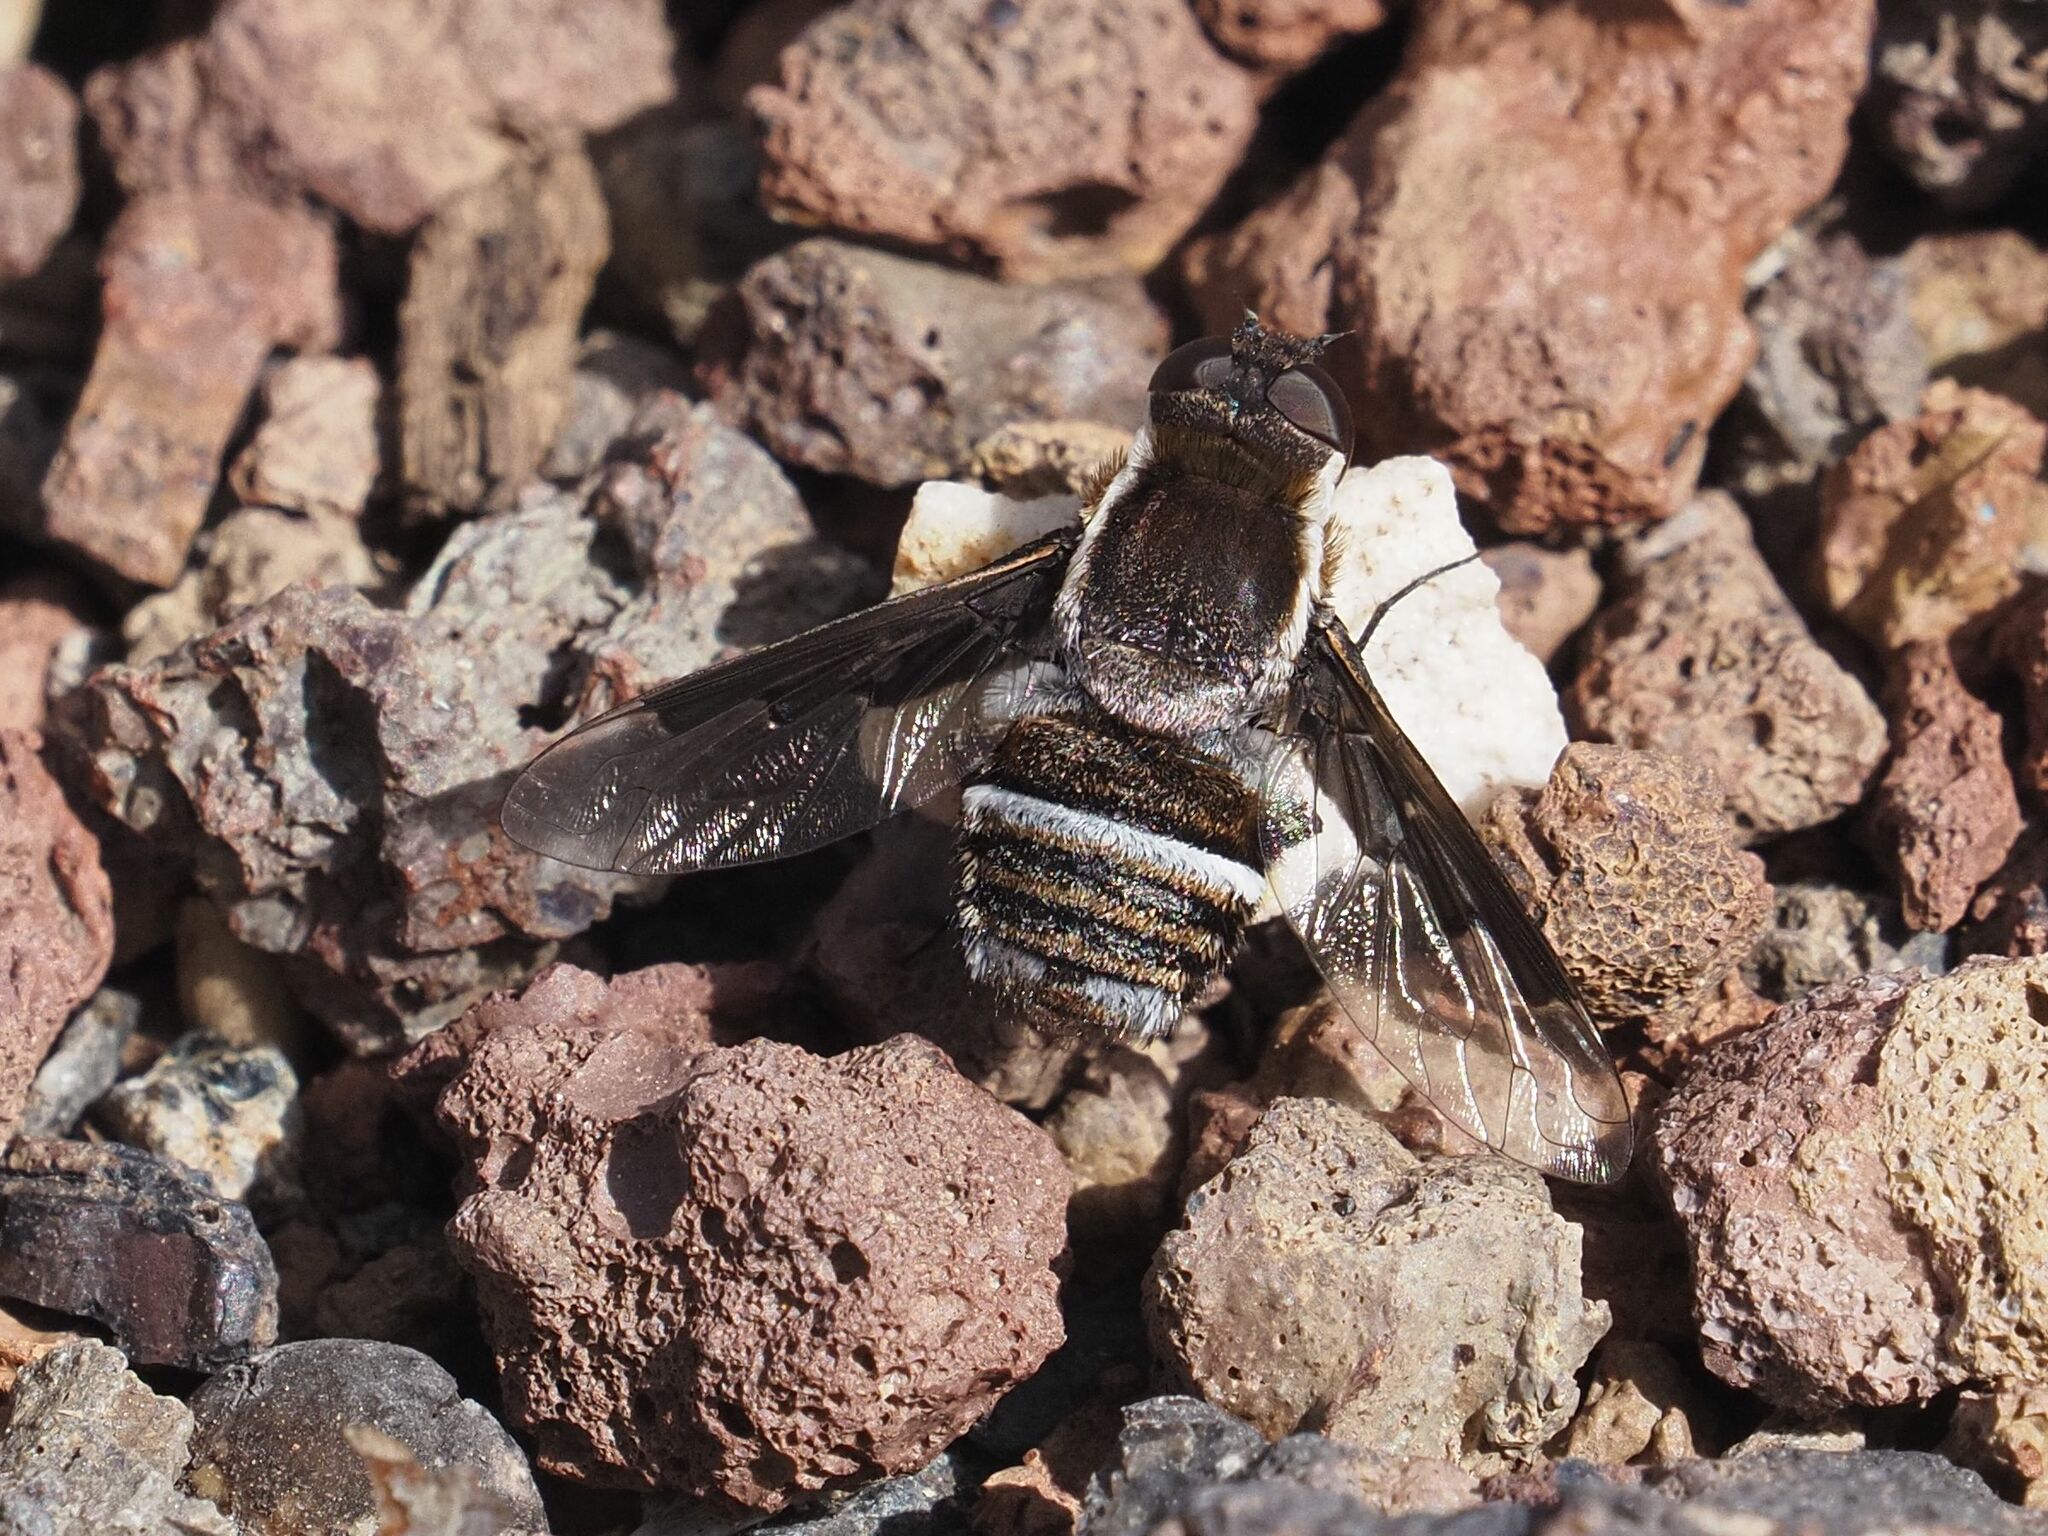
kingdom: Animalia
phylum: Arthropoda
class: Insecta
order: Diptera
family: Bombyliidae
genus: Exhyalanthrax
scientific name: Exhyalanthrax canarionae
